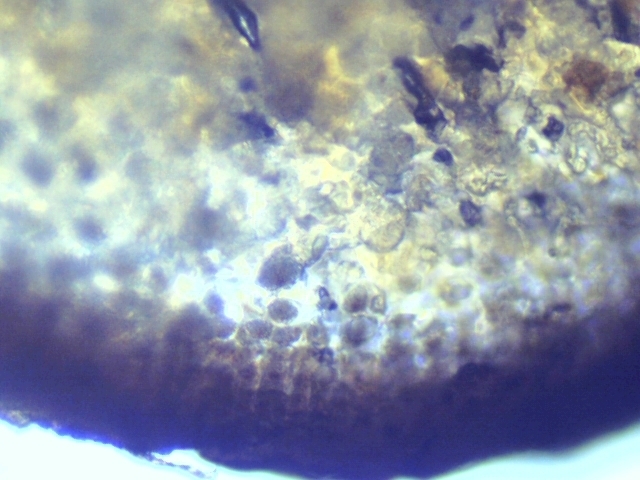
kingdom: Chromista
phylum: Ochrophyta
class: Phaeophyceae
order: Scytothamnales
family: Scytothamnaceae
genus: Scytothamnus
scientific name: Scytothamnus australis
